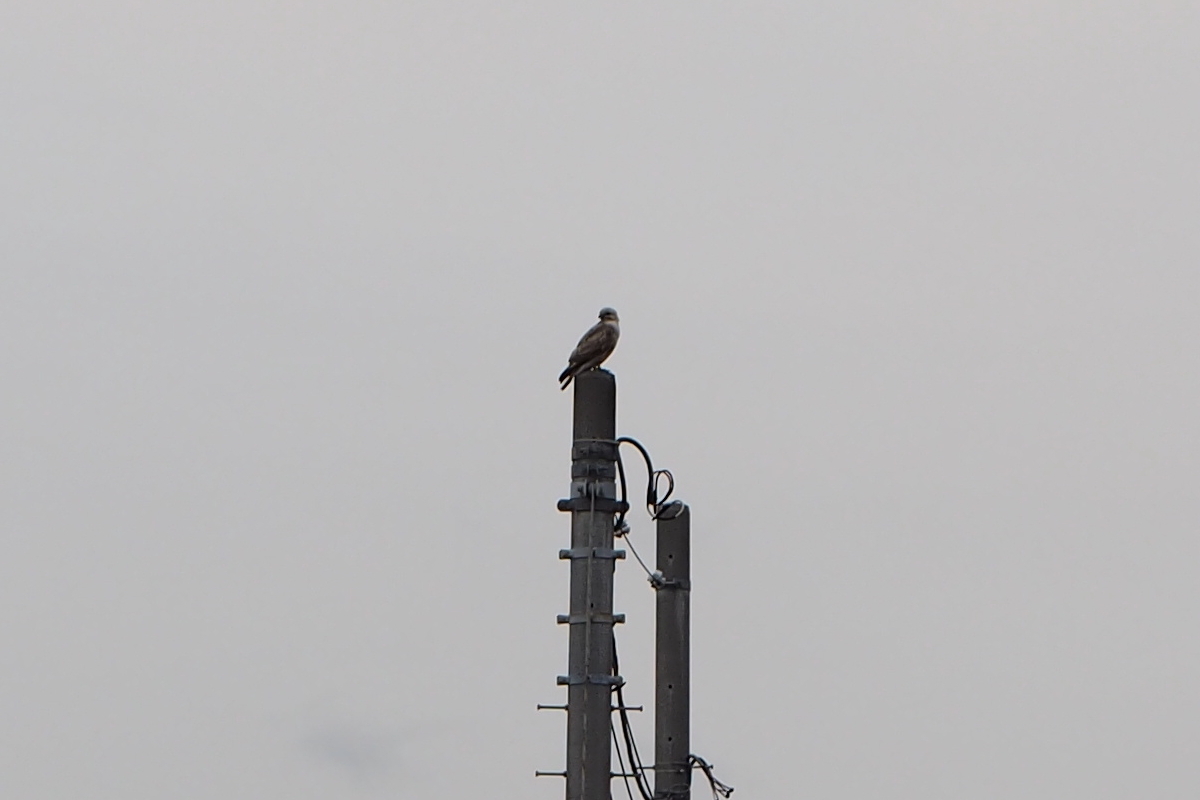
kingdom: Animalia
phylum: Chordata
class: Aves
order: Accipitriformes
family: Accipitridae
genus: Buteo
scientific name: Buteo japonicus
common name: Eastern buzzard
